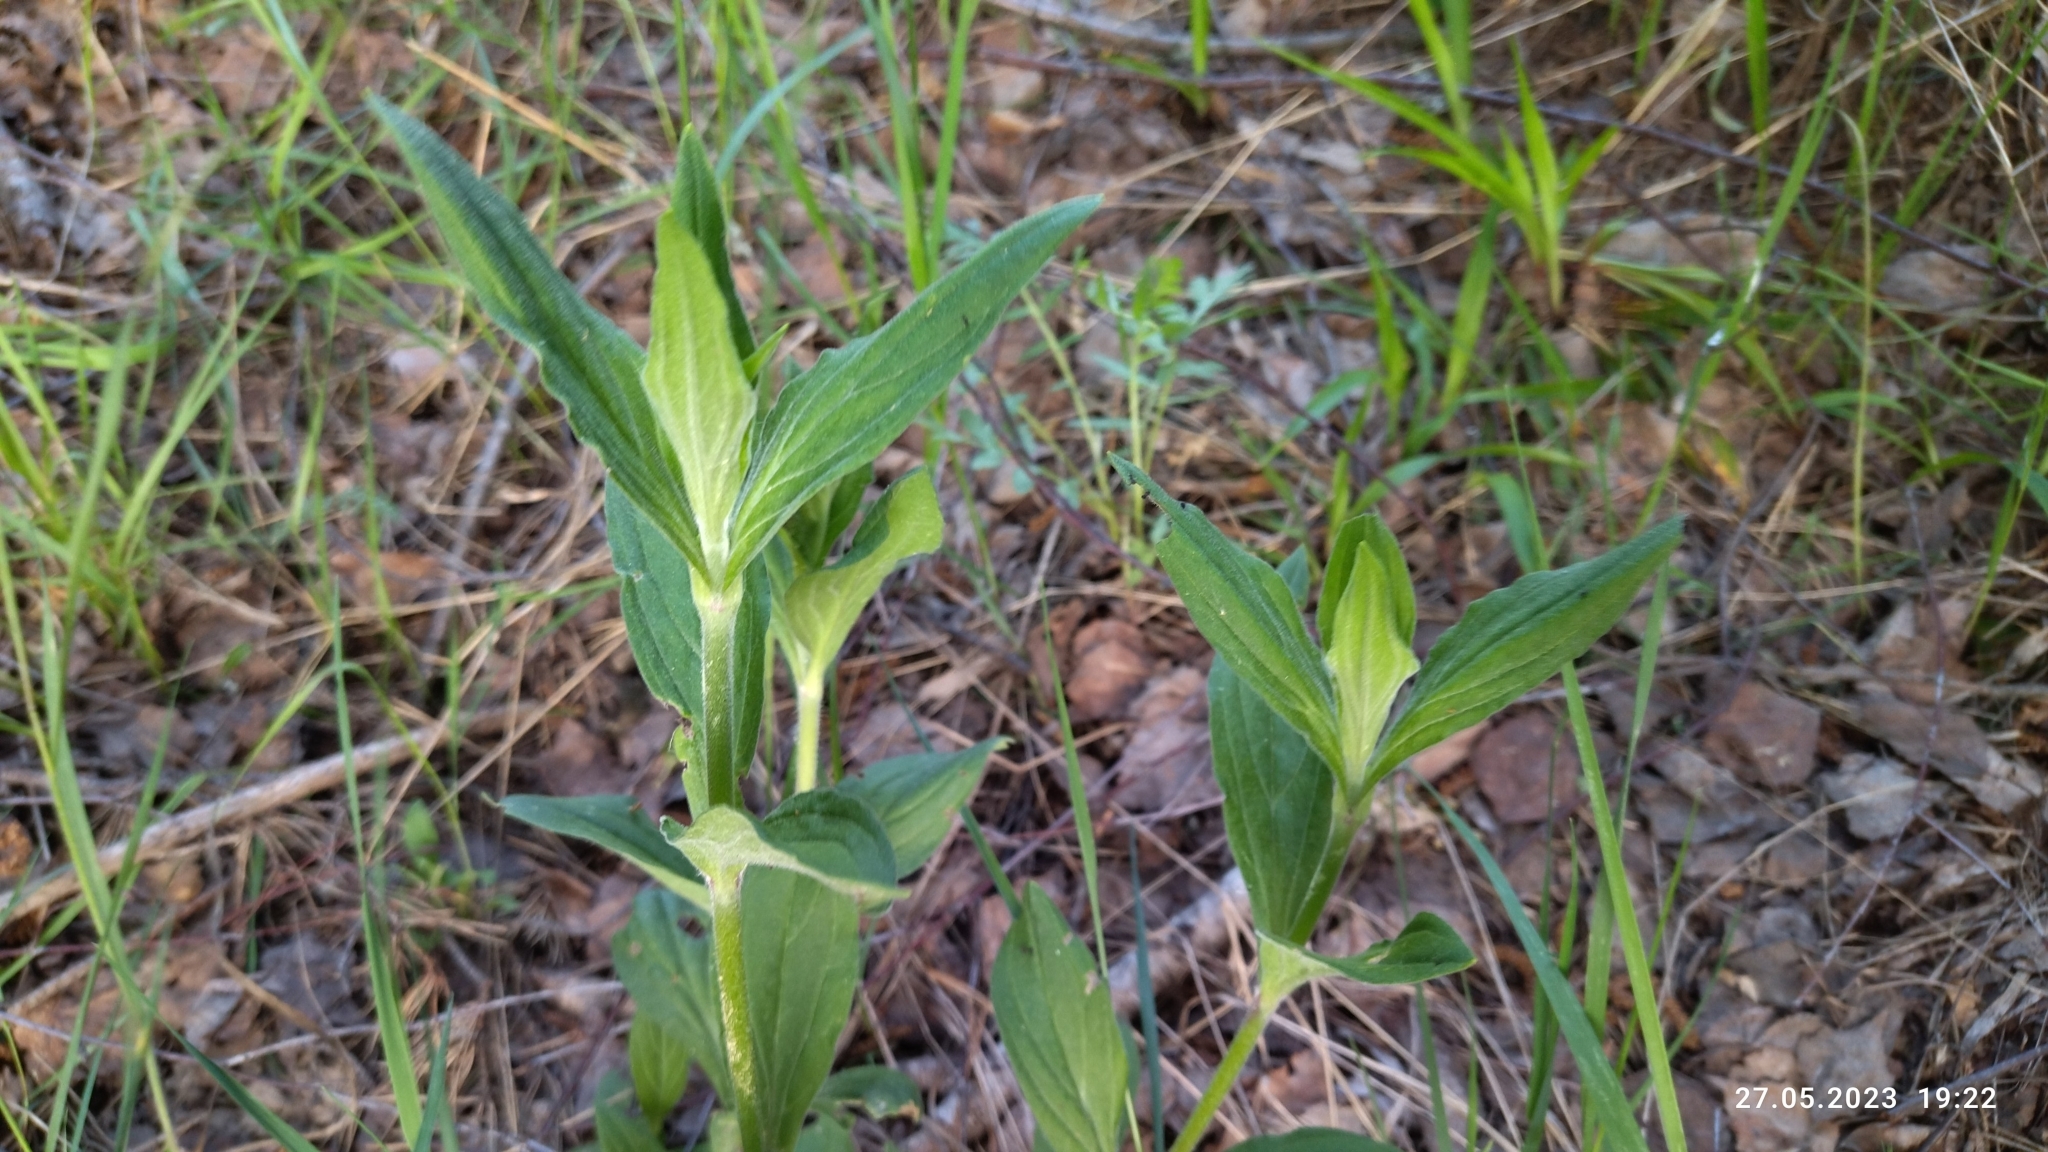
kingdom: Plantae
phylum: Tracheophyta
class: Magnoliopsida
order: Caryophyllales
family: Caryophyllaceae
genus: Silene
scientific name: Silene latifolia
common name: White campion
